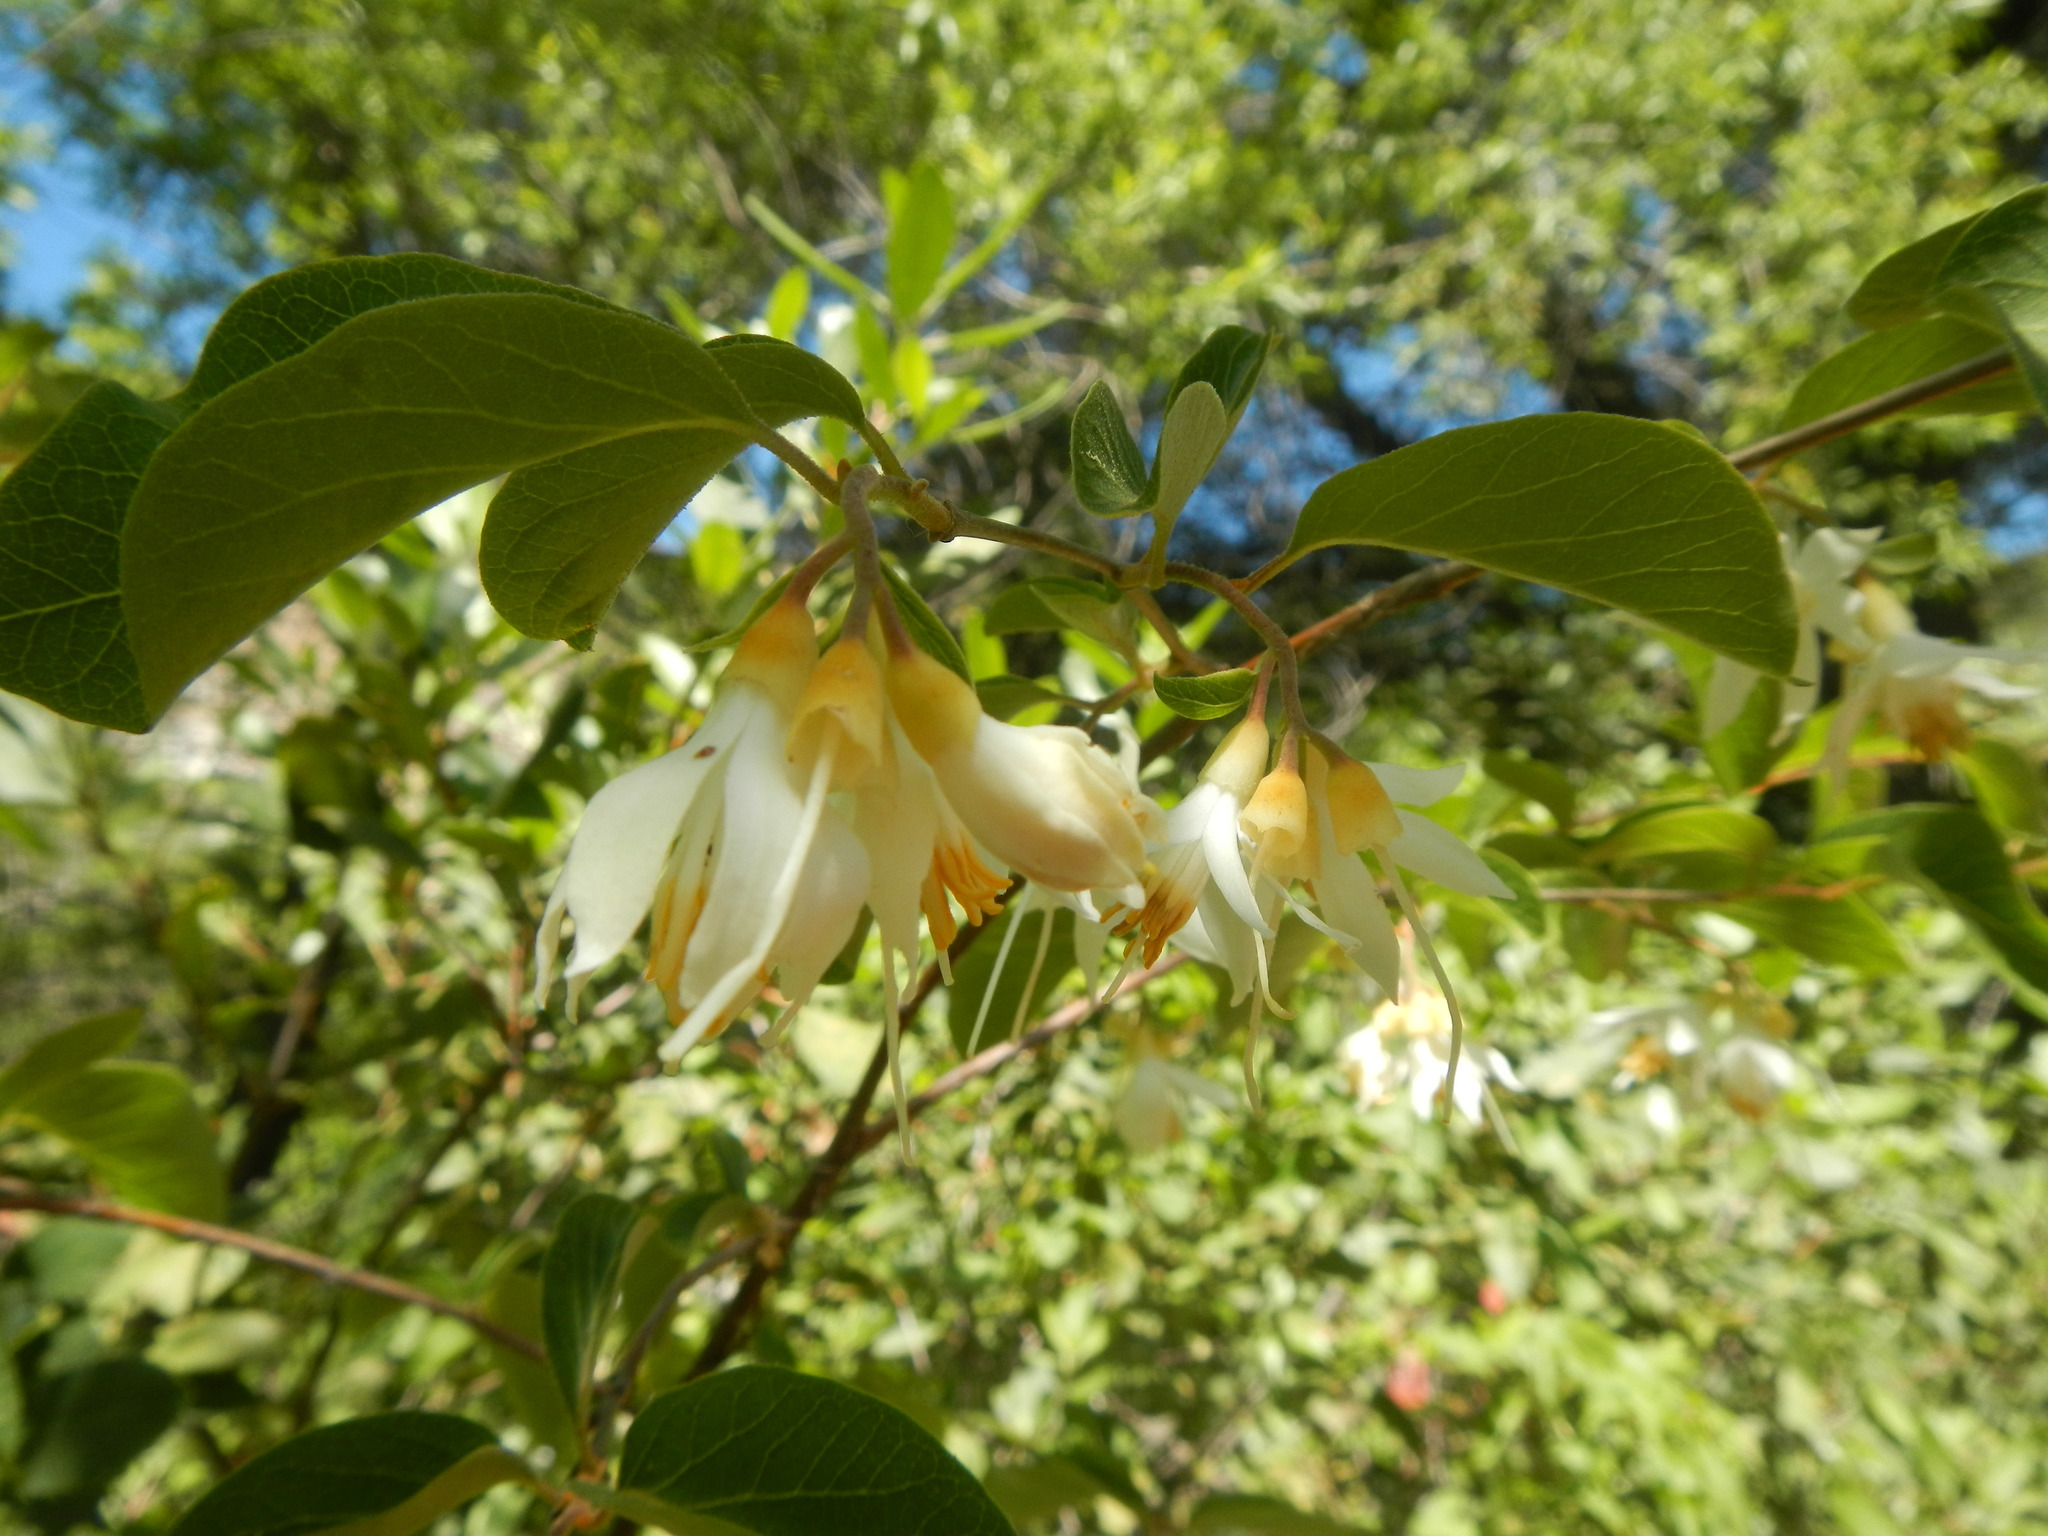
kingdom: Plantae
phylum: Tracheophyta
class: Magnoliopsida
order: Ericales
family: Styracaceae
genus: Styrax
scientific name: Styrax redivivus
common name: California styrax
